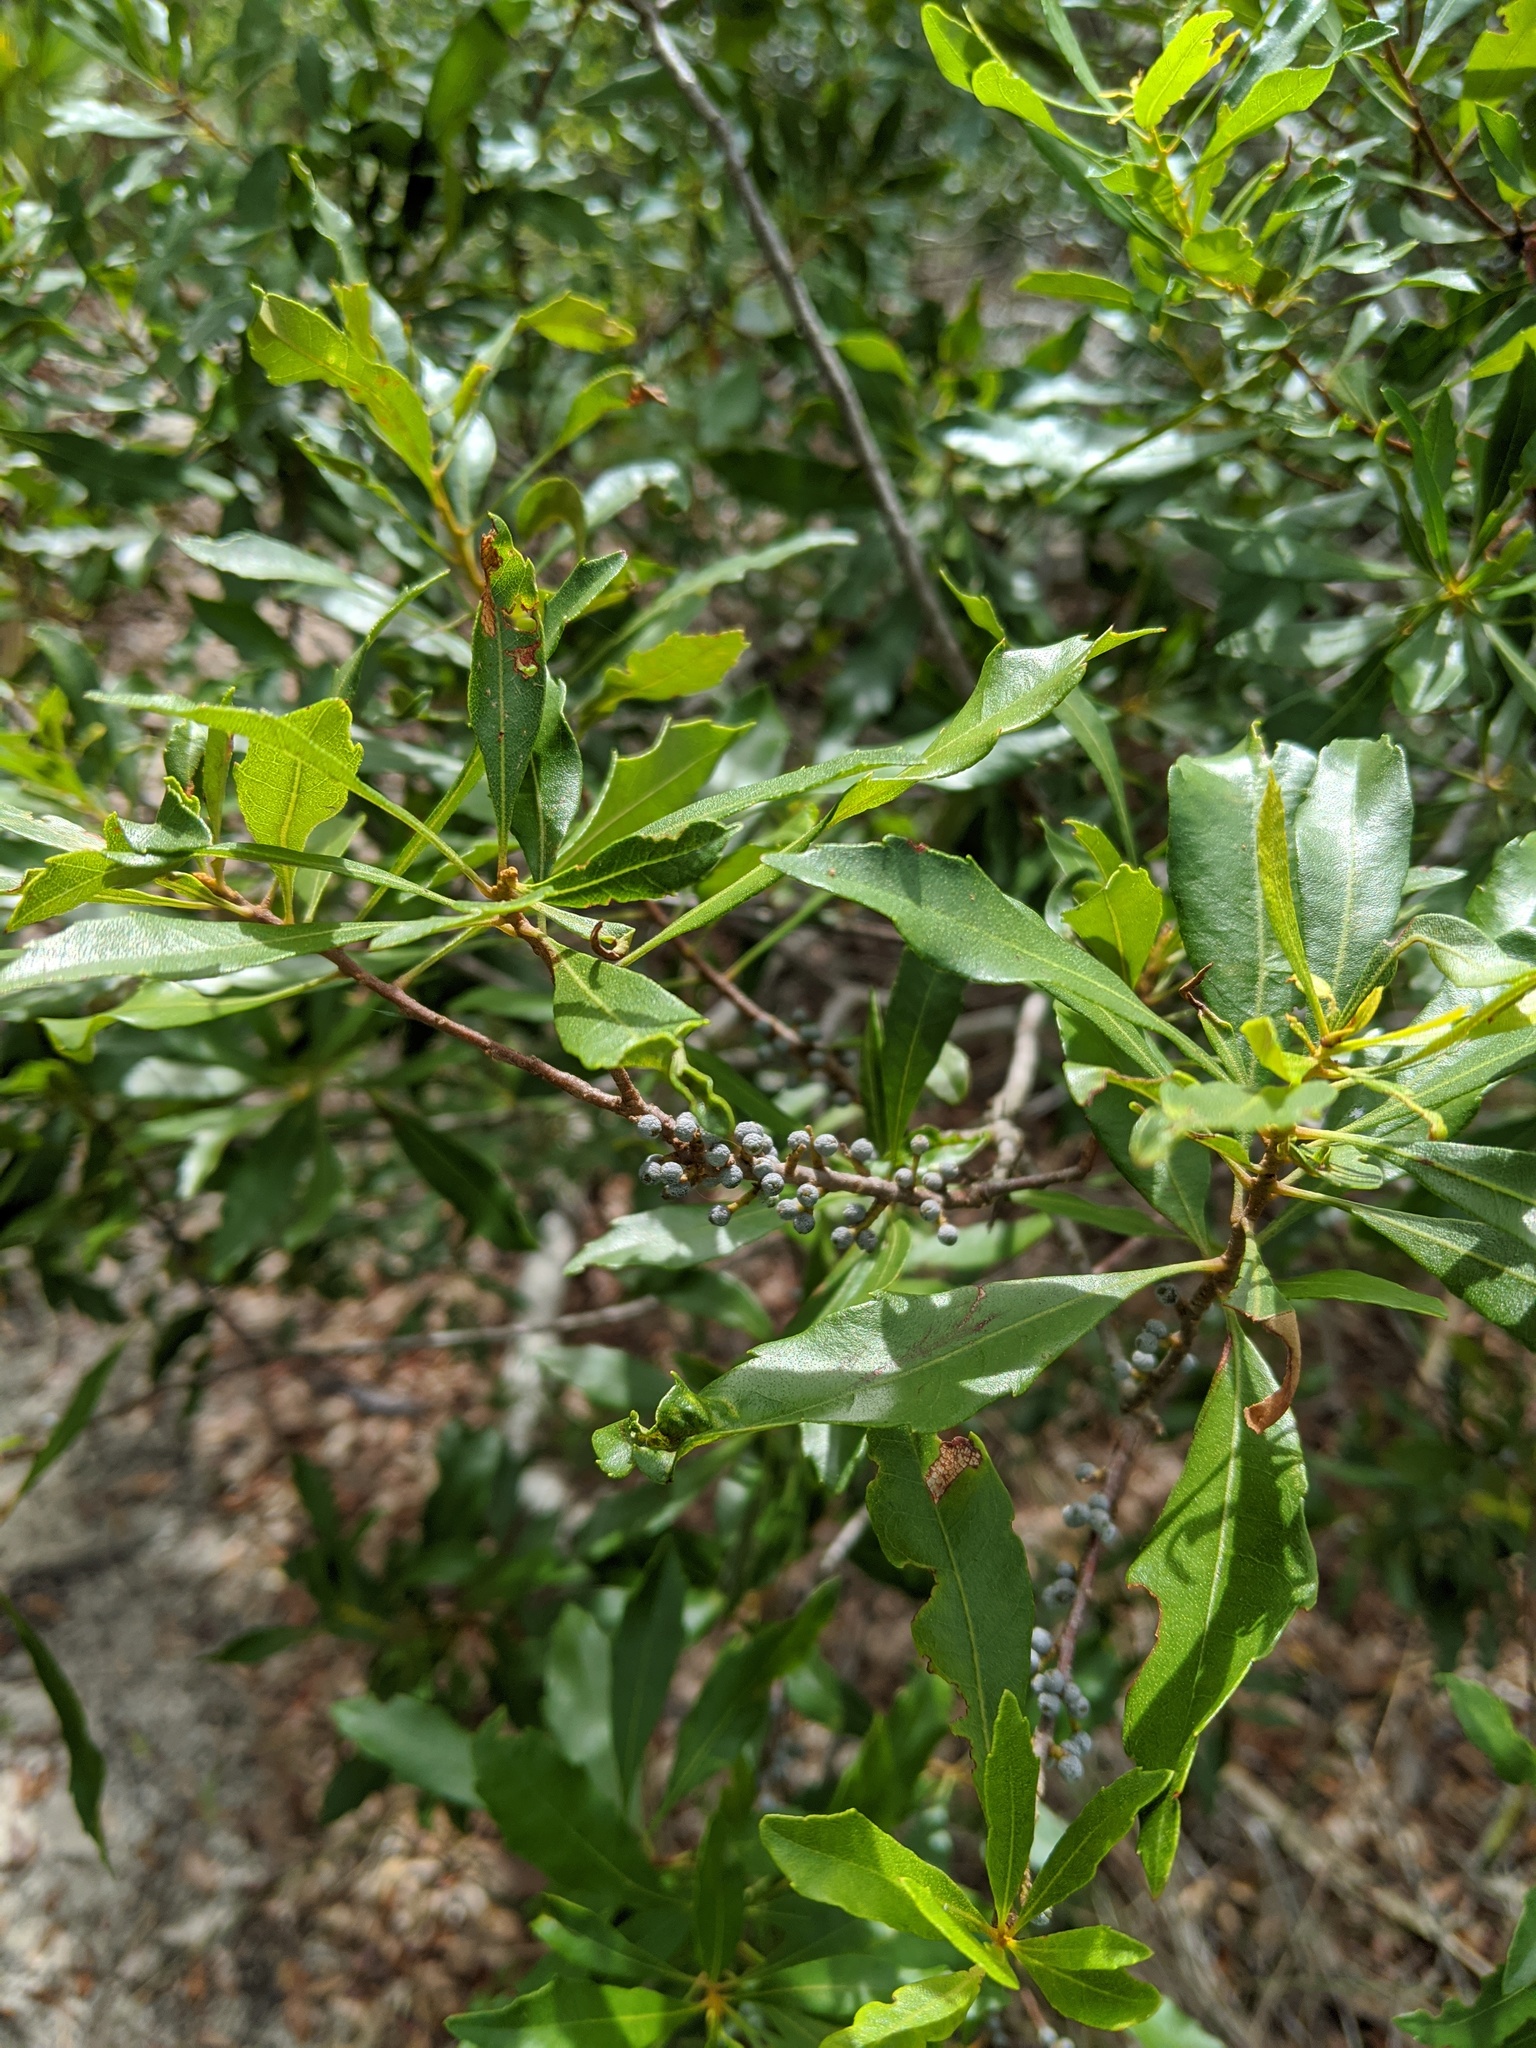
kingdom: Plantae
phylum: Tracheophyta
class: Magnoliopsida
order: Fagales
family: Myricaceae
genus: Morella
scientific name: Morella cerifera
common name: Wax myrtle
